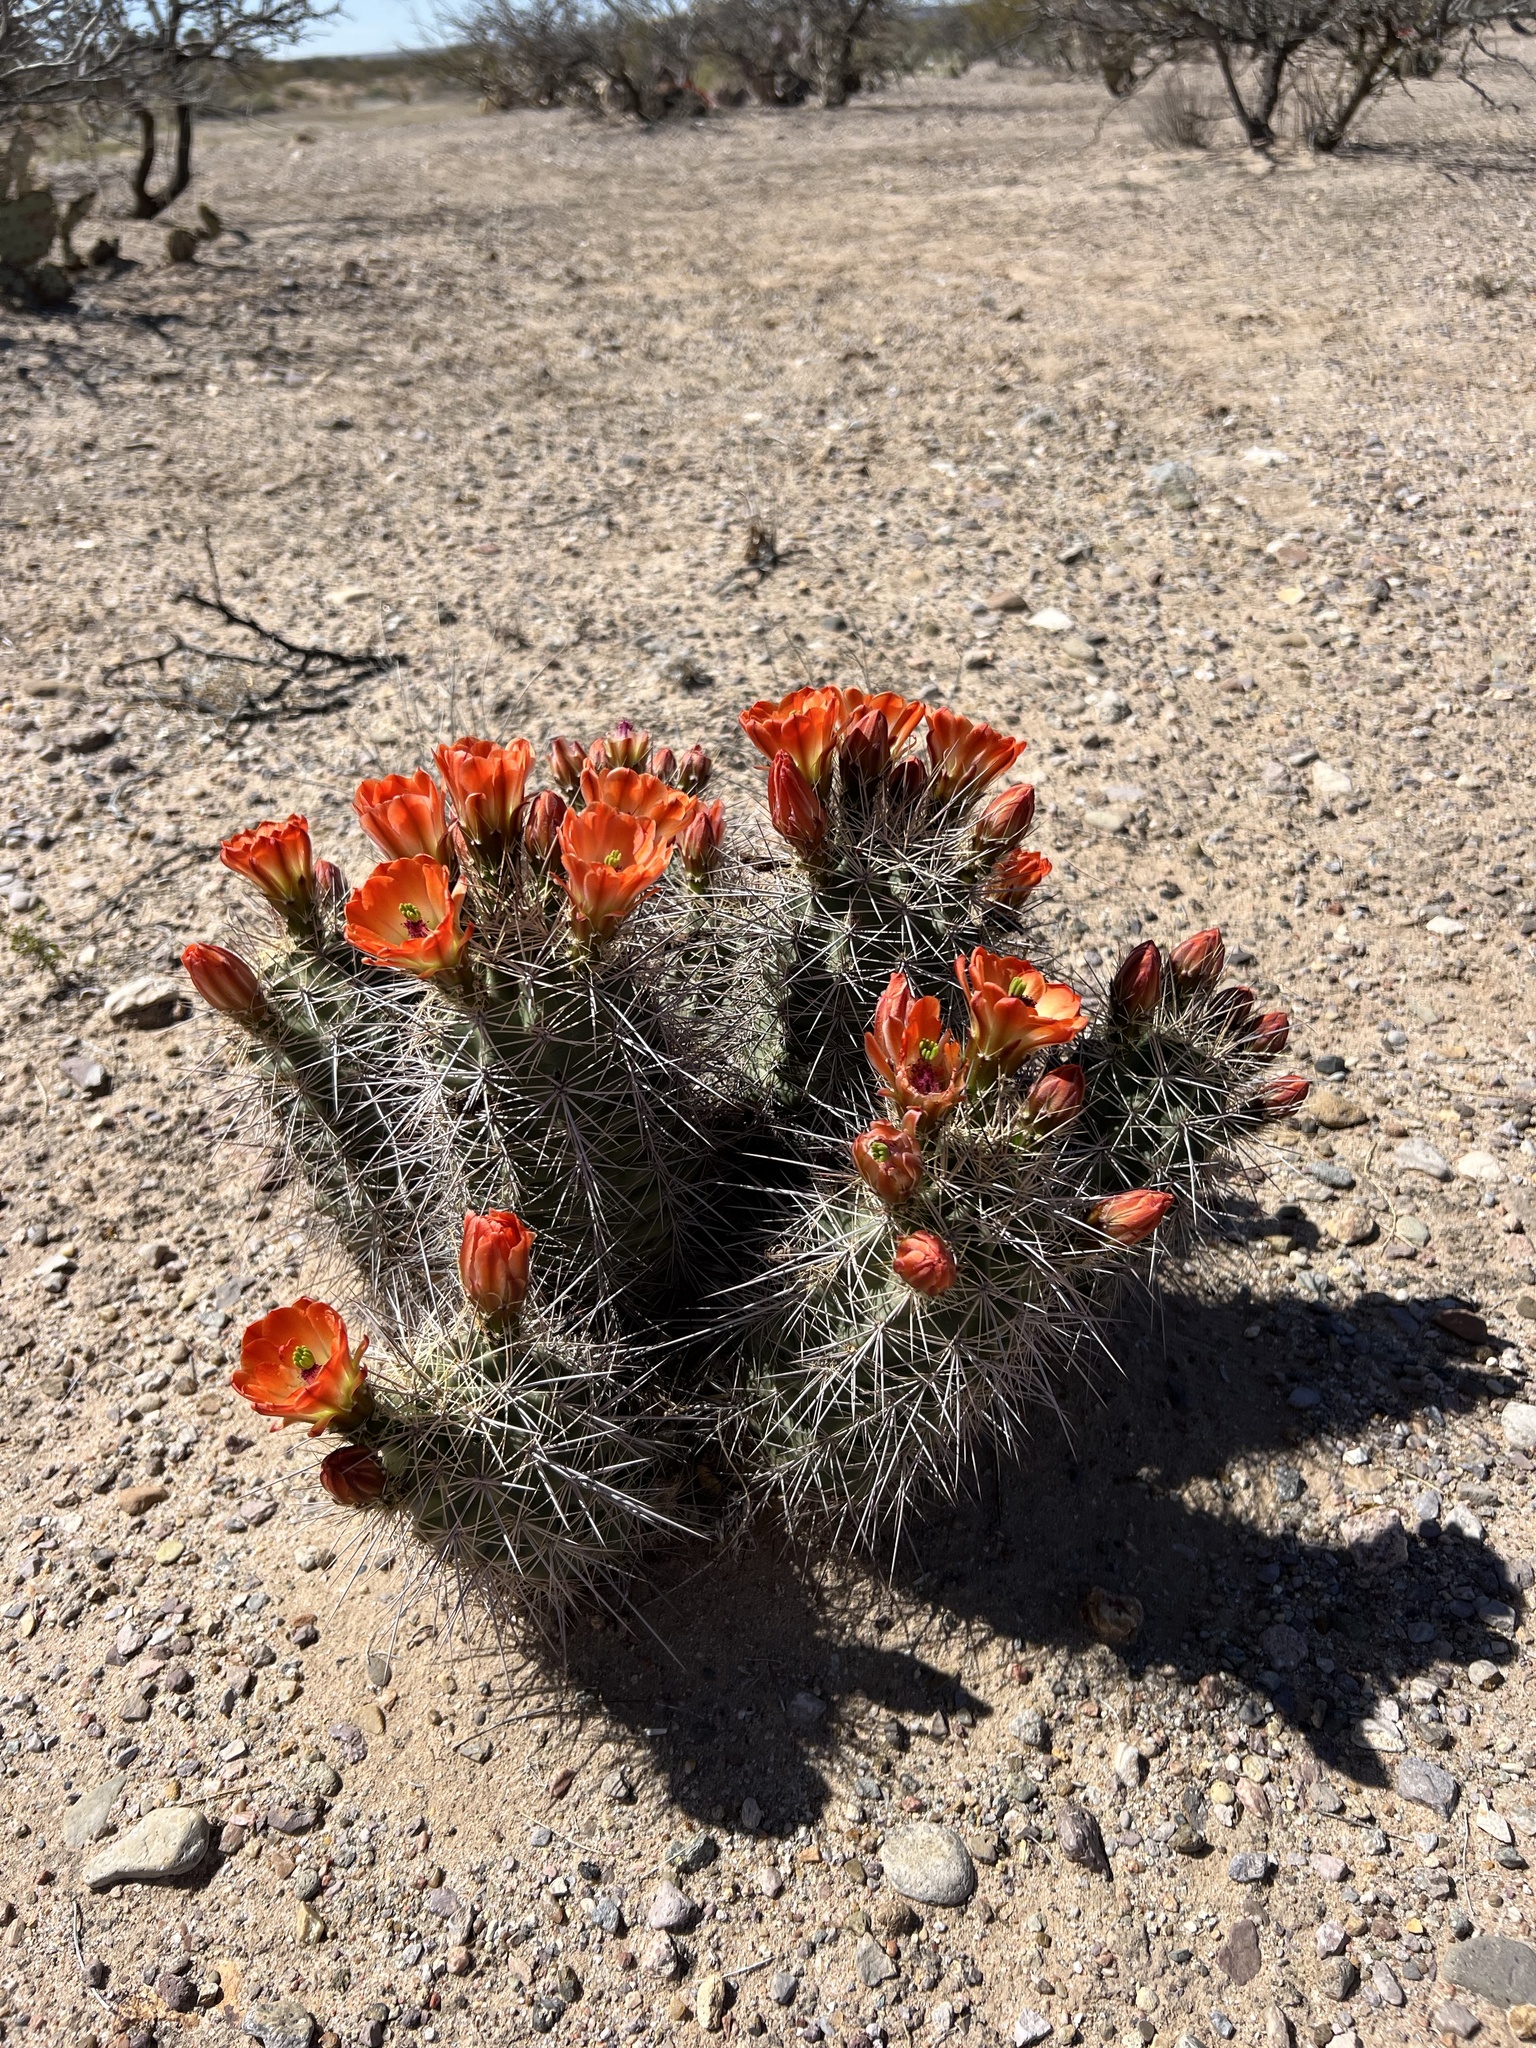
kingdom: Plantae
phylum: Tracheophyta
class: Magnoliopsida
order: Caryophyllales
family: Cactaceae
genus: Echinocereus
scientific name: Echinocereus coccineus
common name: Scarlet hedgehog cactus
